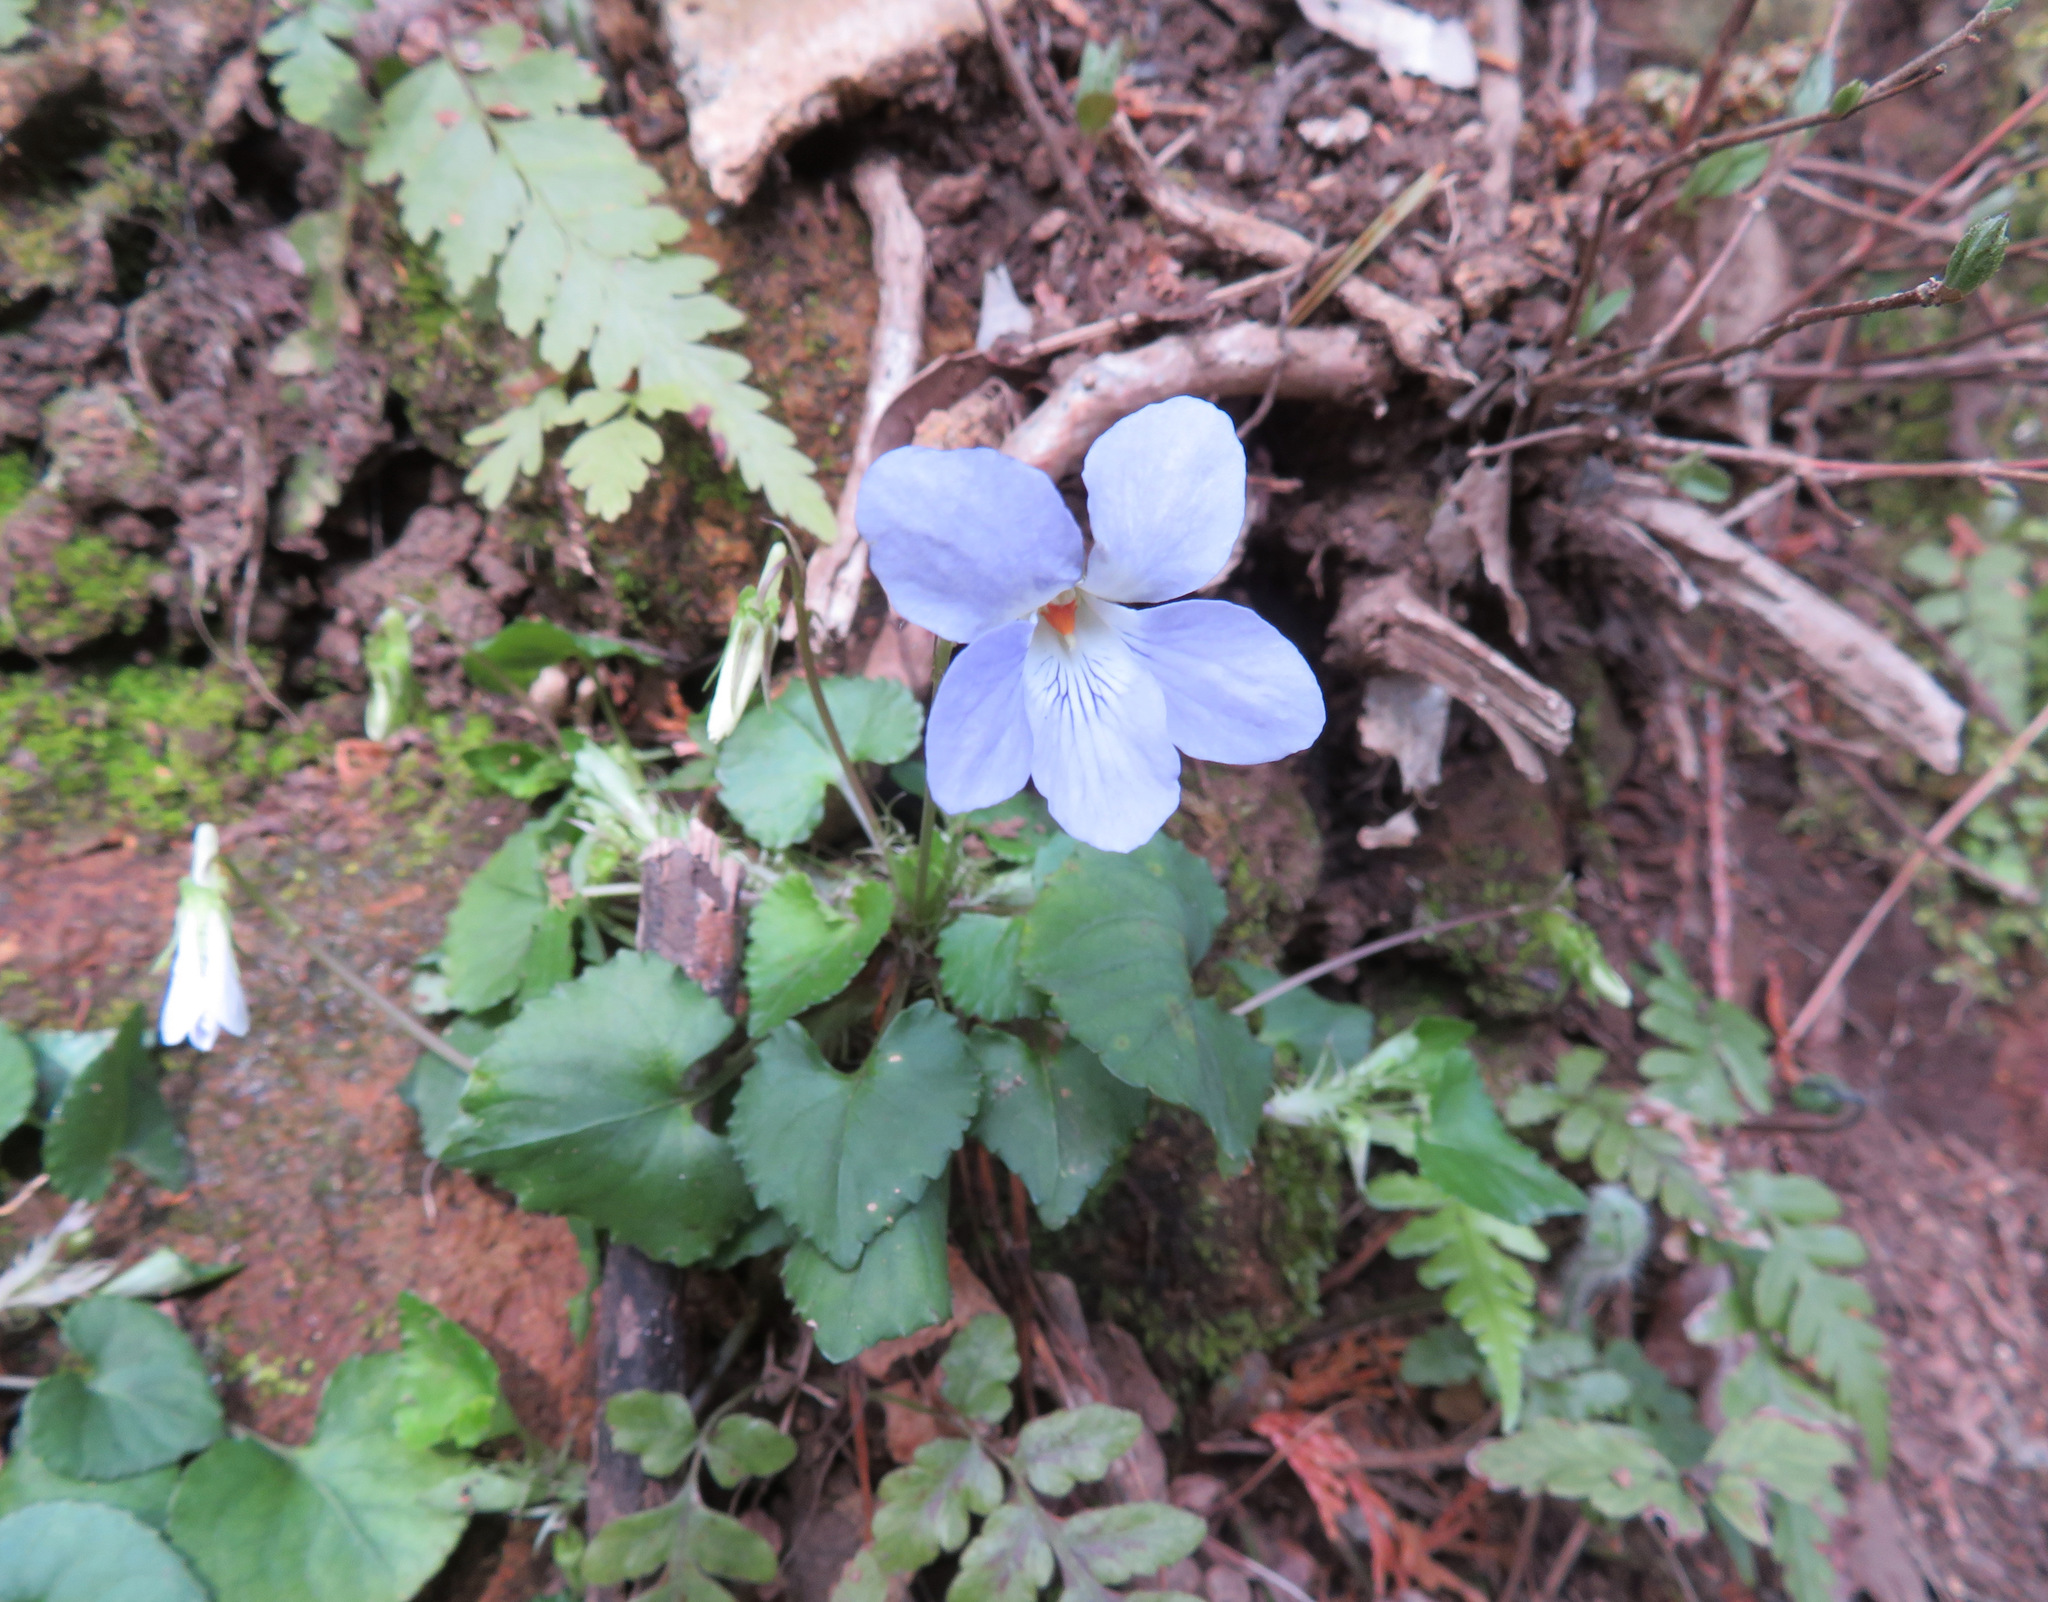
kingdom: Plantae
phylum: Tracheophyta
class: Magnoliopsida
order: Malpighiales
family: Violaceae
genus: Viola
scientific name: Viola grypoceras
